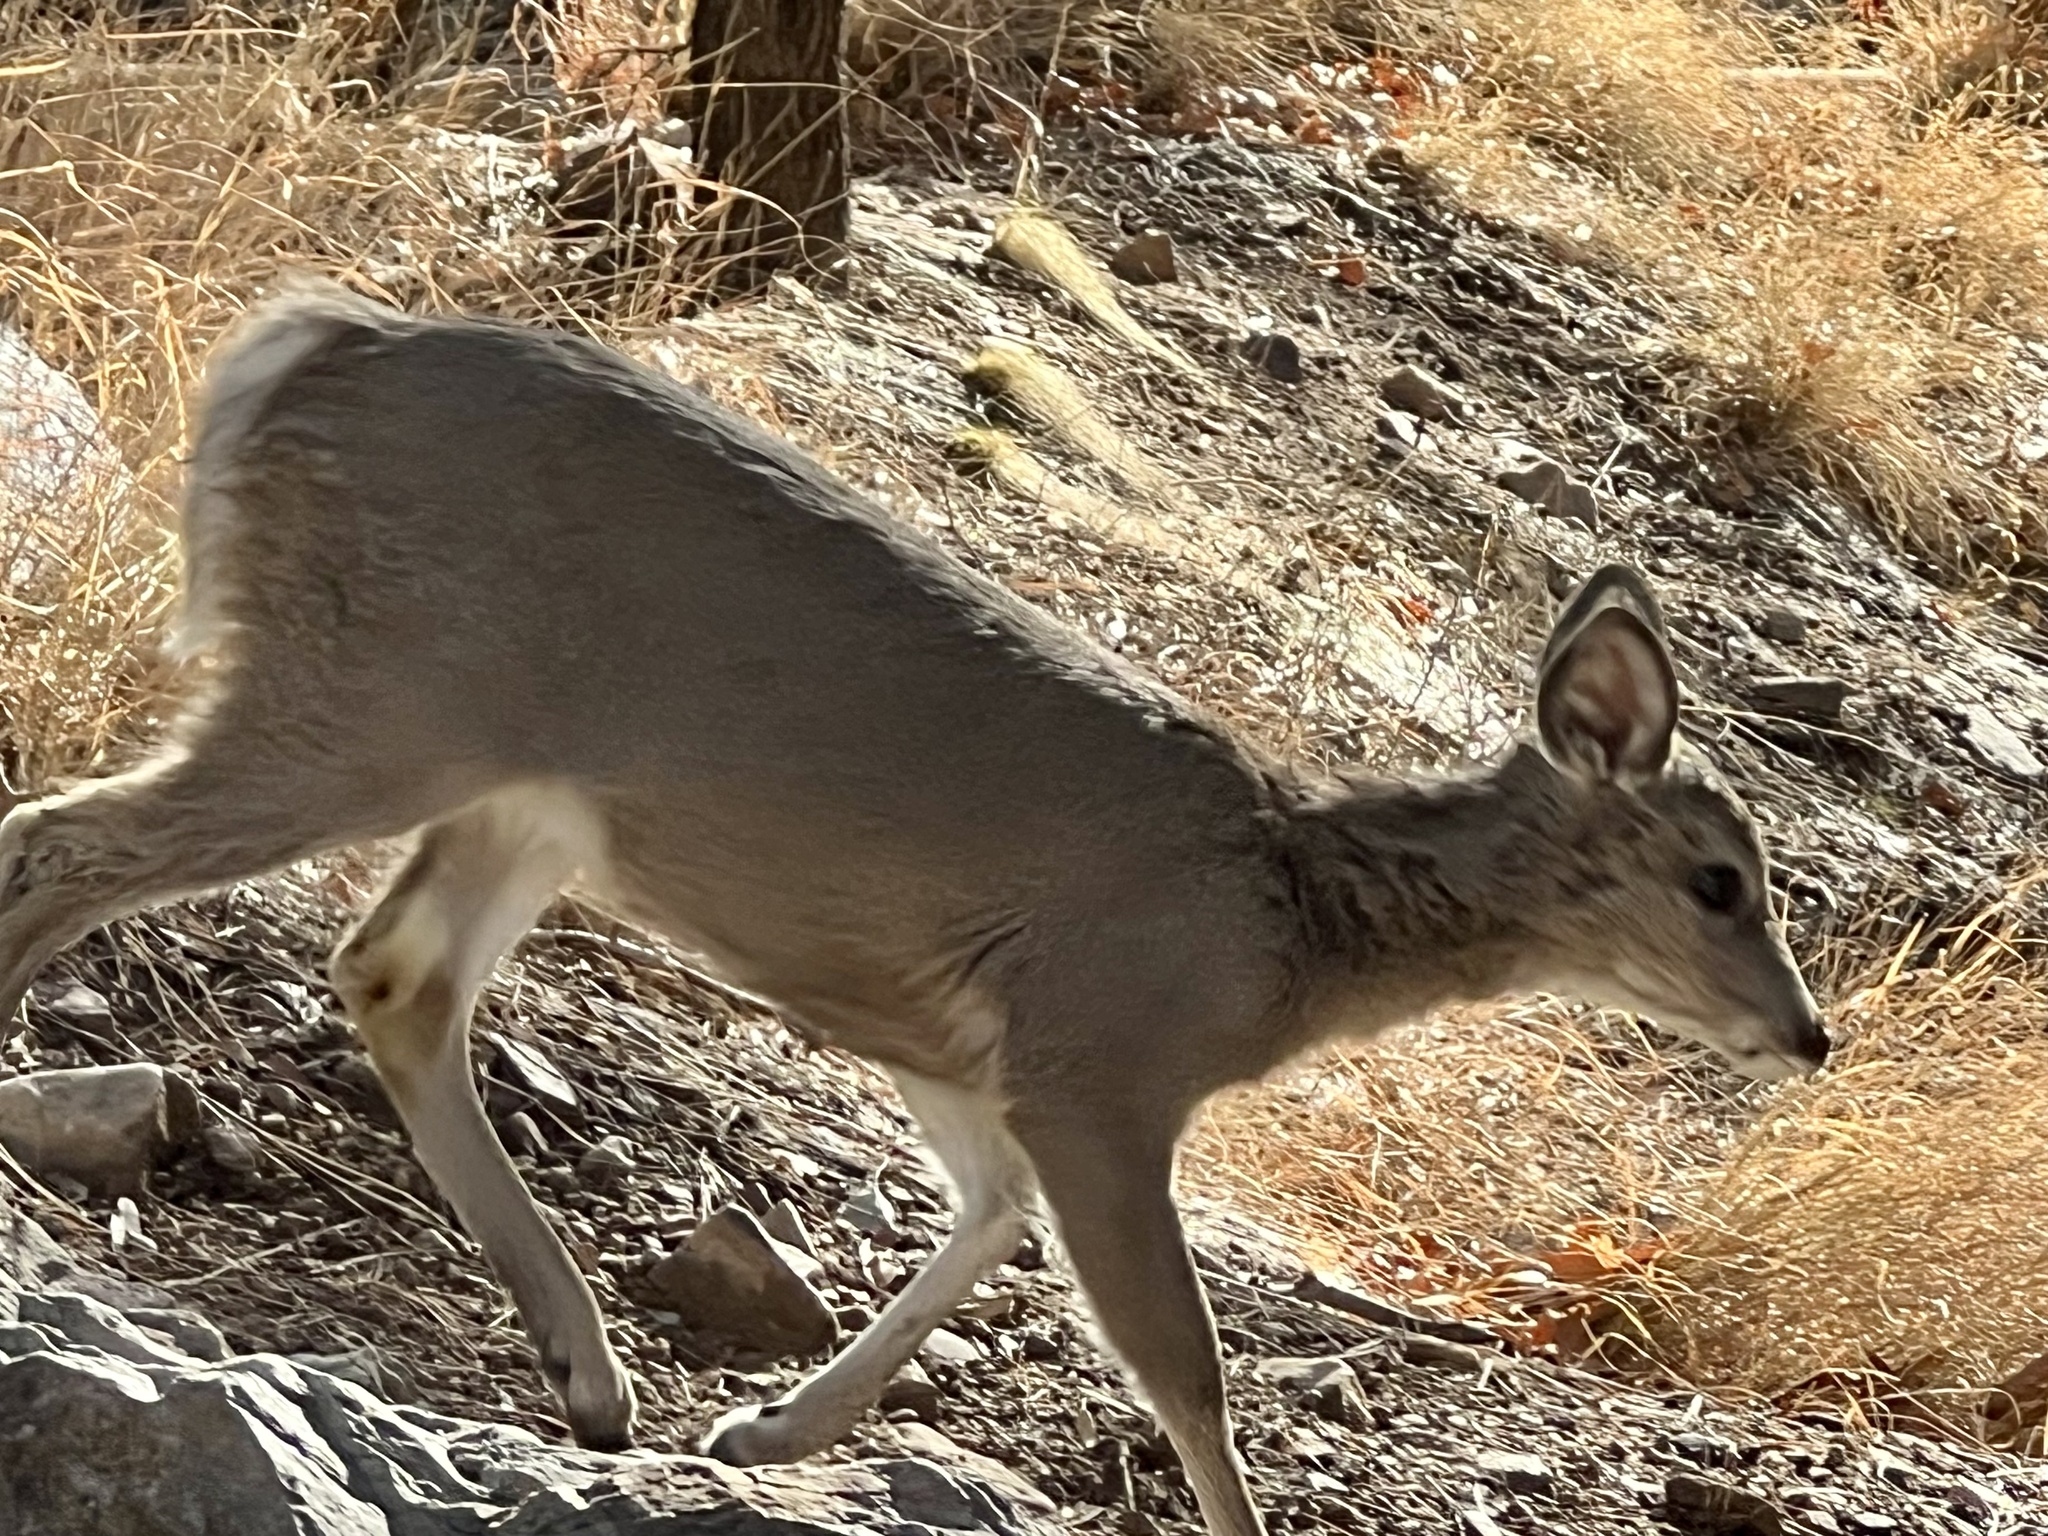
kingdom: Animalia
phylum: Chordata
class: Mammalia
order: Artiodactyla
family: Cervidae
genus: Odocoileus
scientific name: Odocoileus virginianus
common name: White-tailed deer
